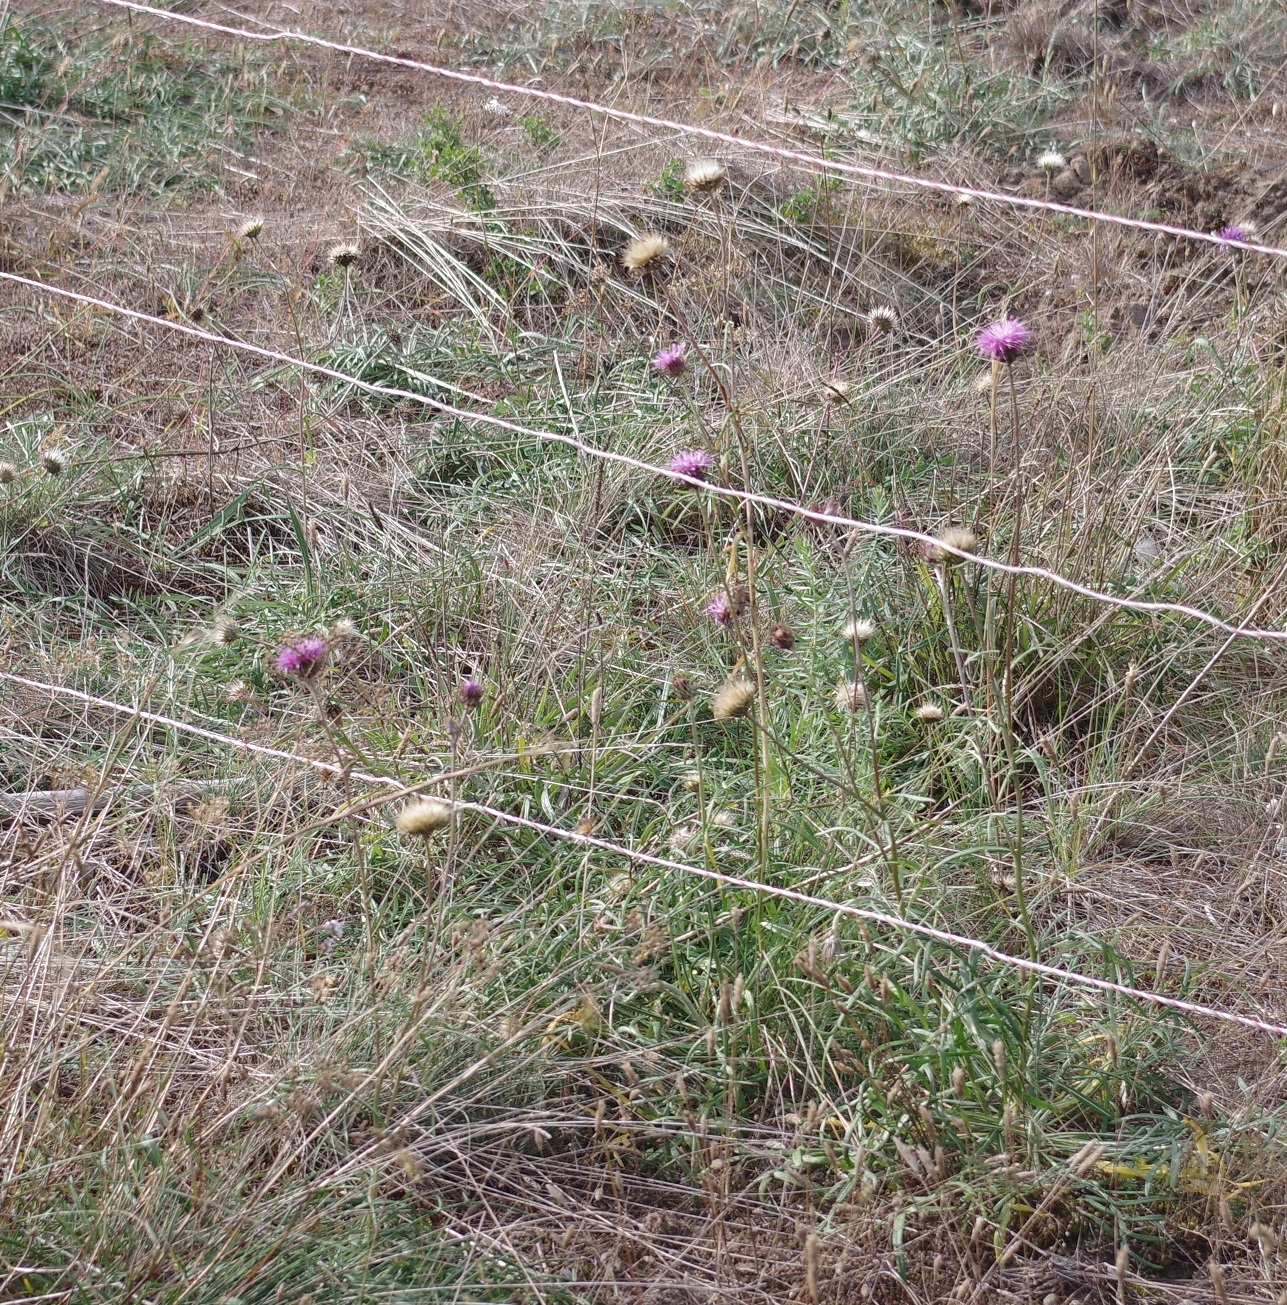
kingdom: Plantae
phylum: Tracheophyta
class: Magnoliopsida
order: Asterales
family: Asteraceae
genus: Jurinea
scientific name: Jurinea cyanoides
